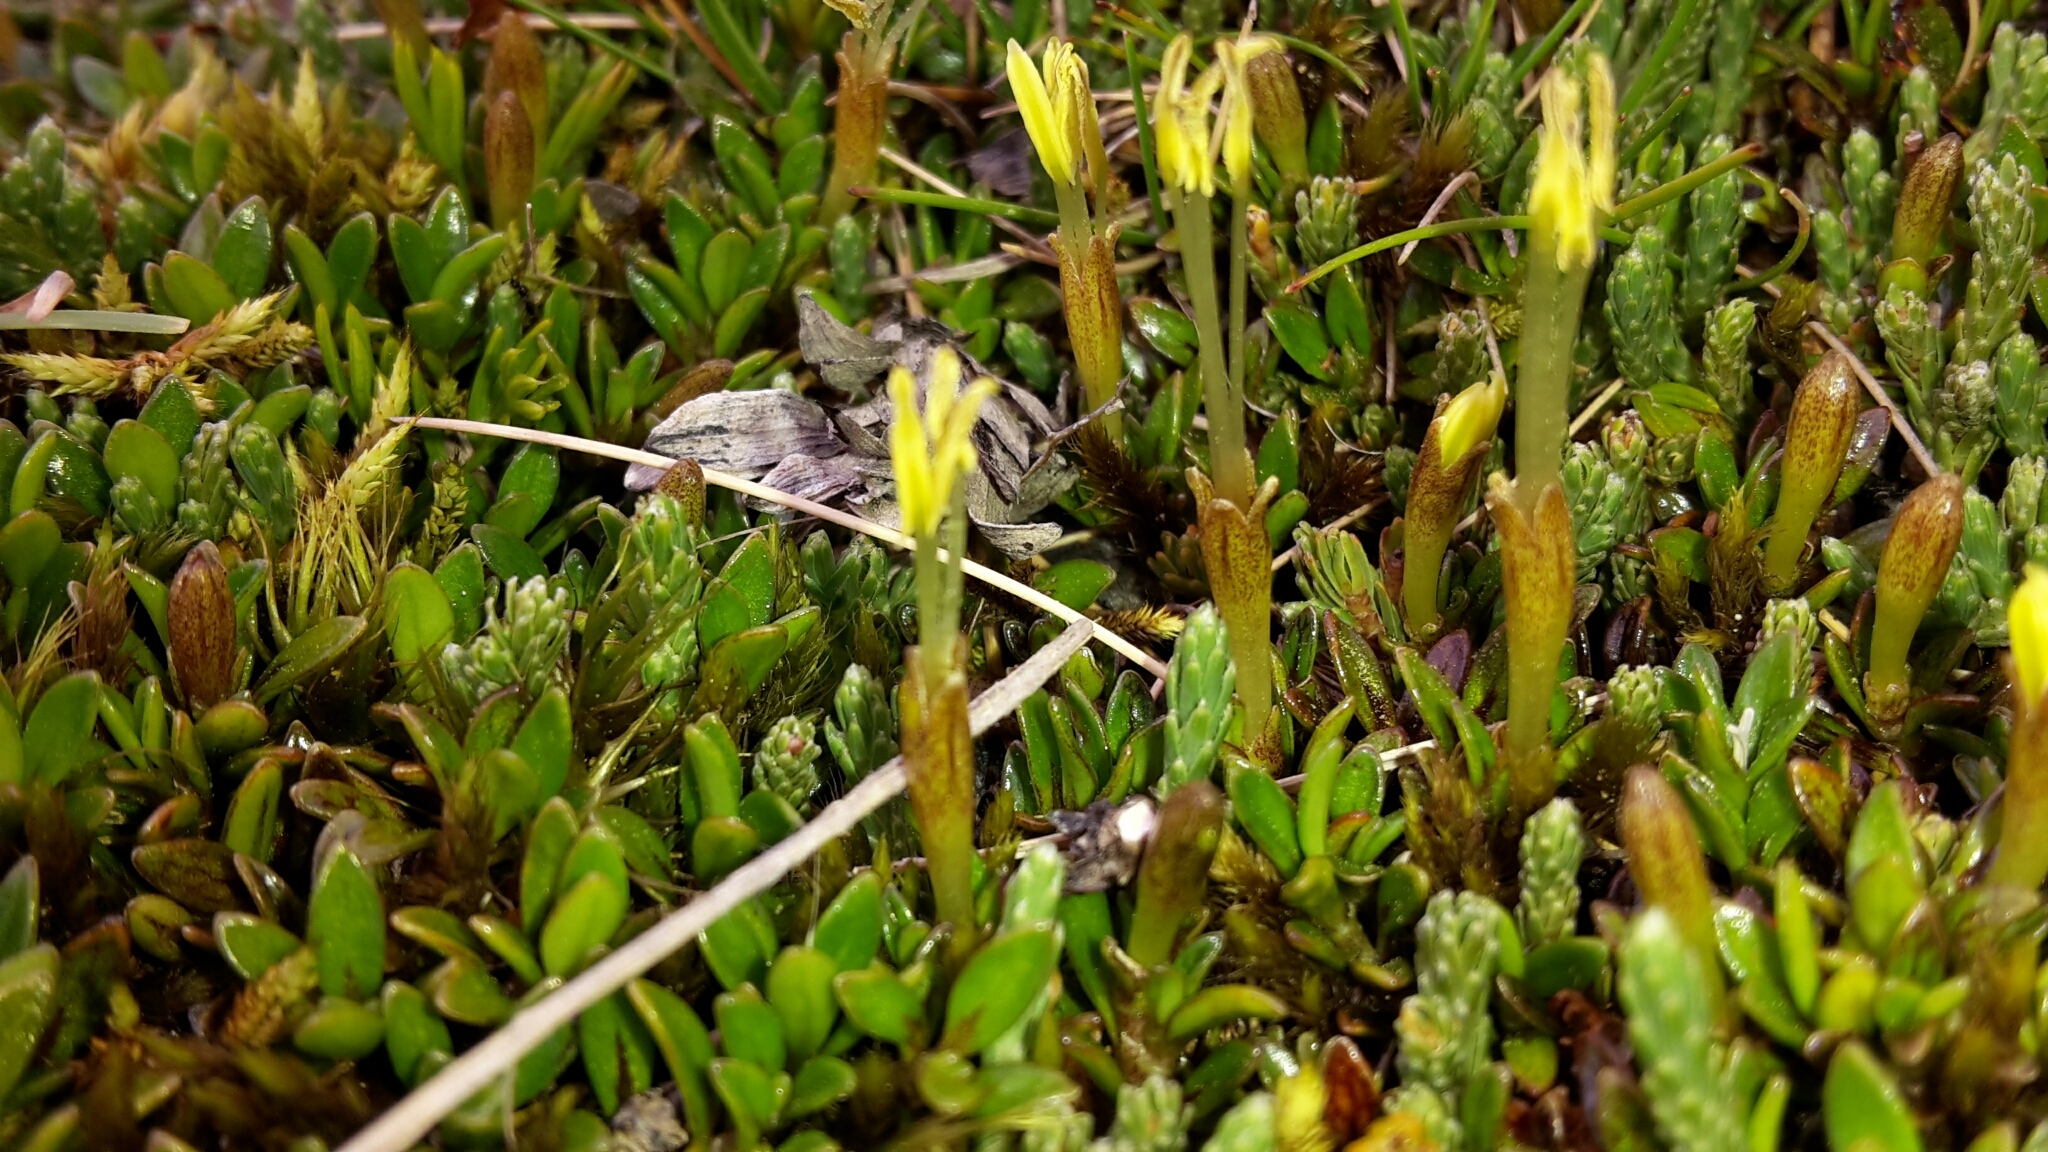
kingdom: Plantae
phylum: Tracheophyta
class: Magnoliopsida
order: Gentianales
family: Rubiaceae
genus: Coprosma
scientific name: Coprosma perpusilla
